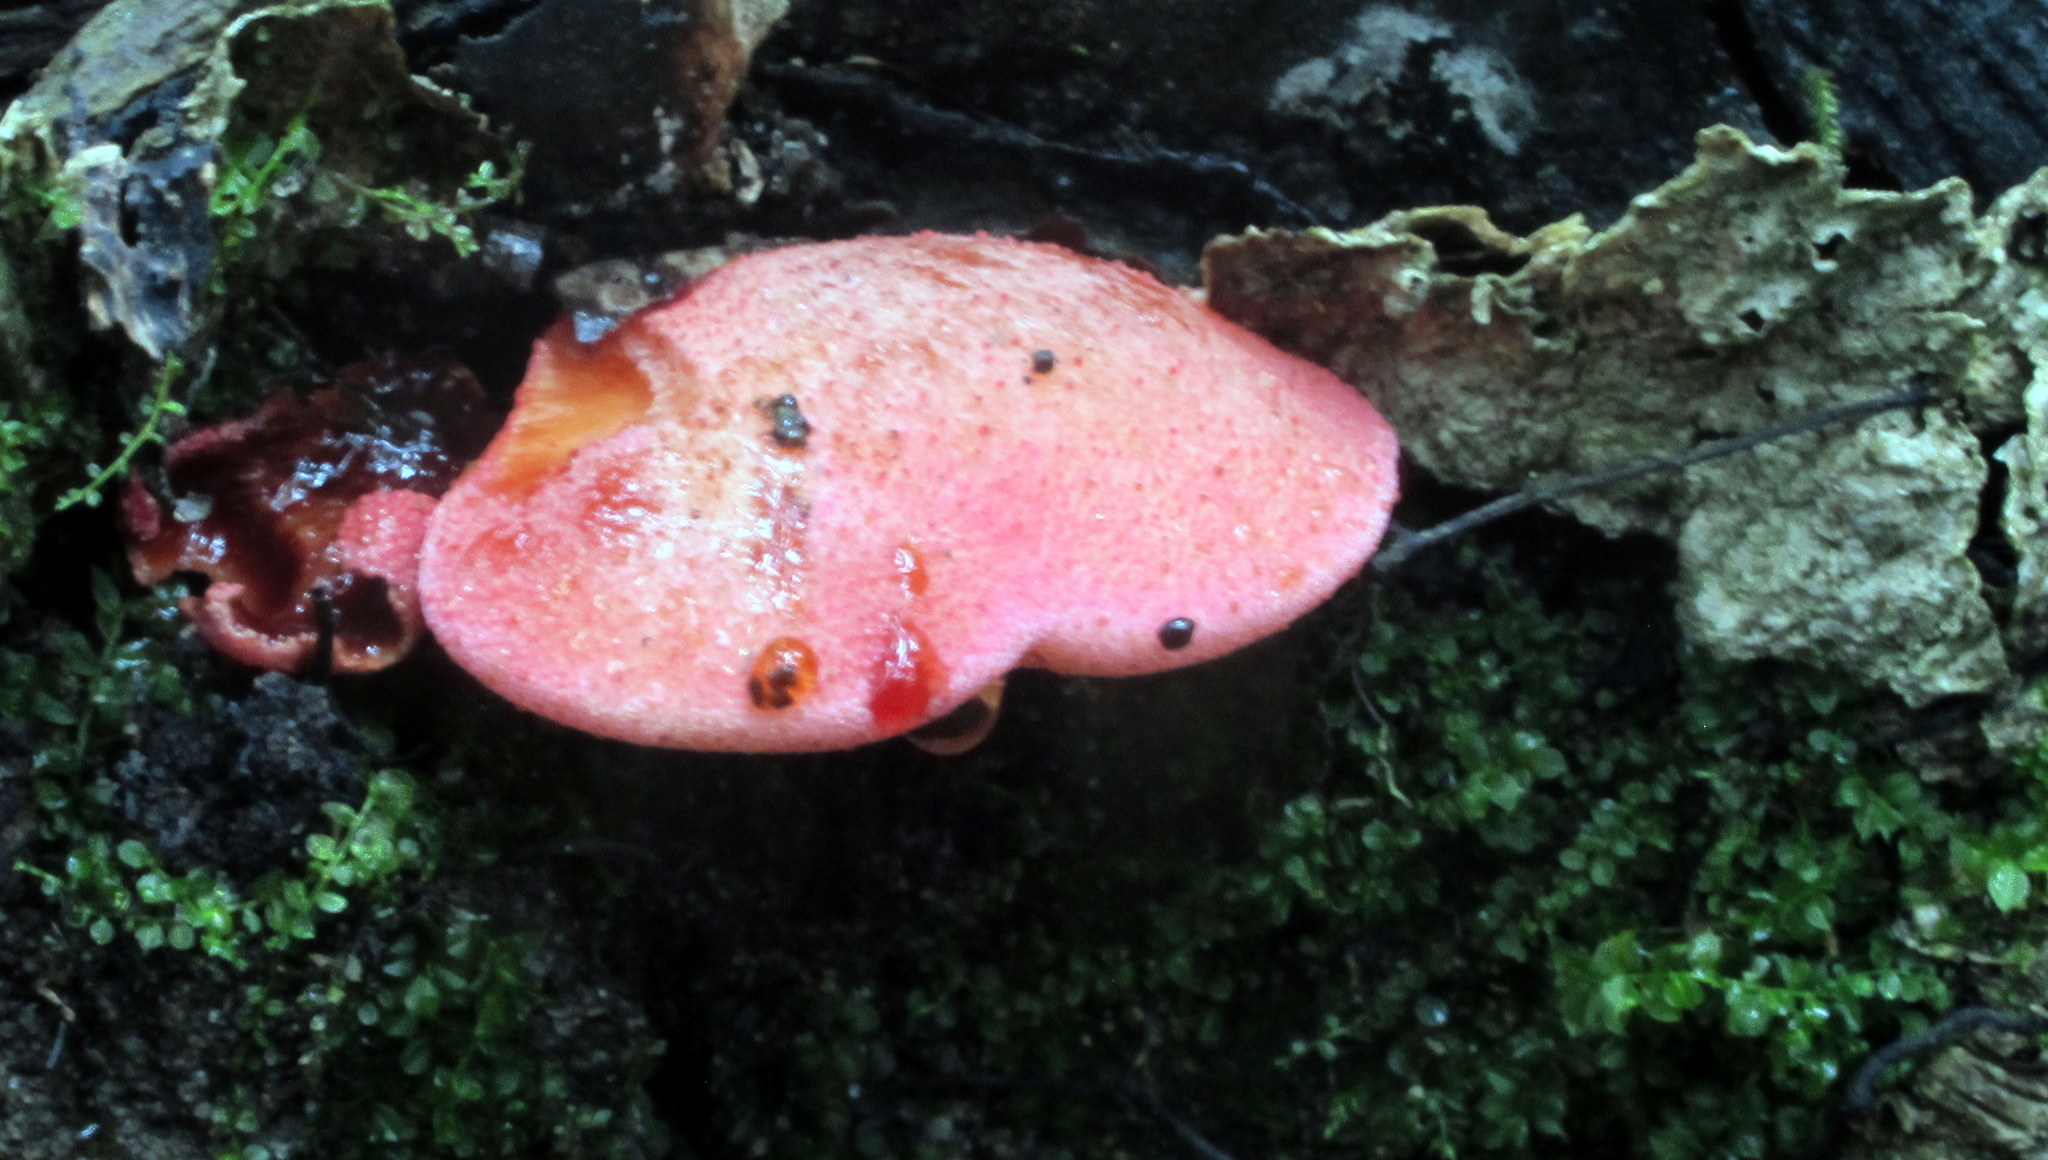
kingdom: Fungi
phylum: Basidiomycota
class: Agaricomycetes
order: Agaricales
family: Fistulinaceae
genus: Fistulina
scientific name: Fistulina hepatica
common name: Beef-steak fungus
